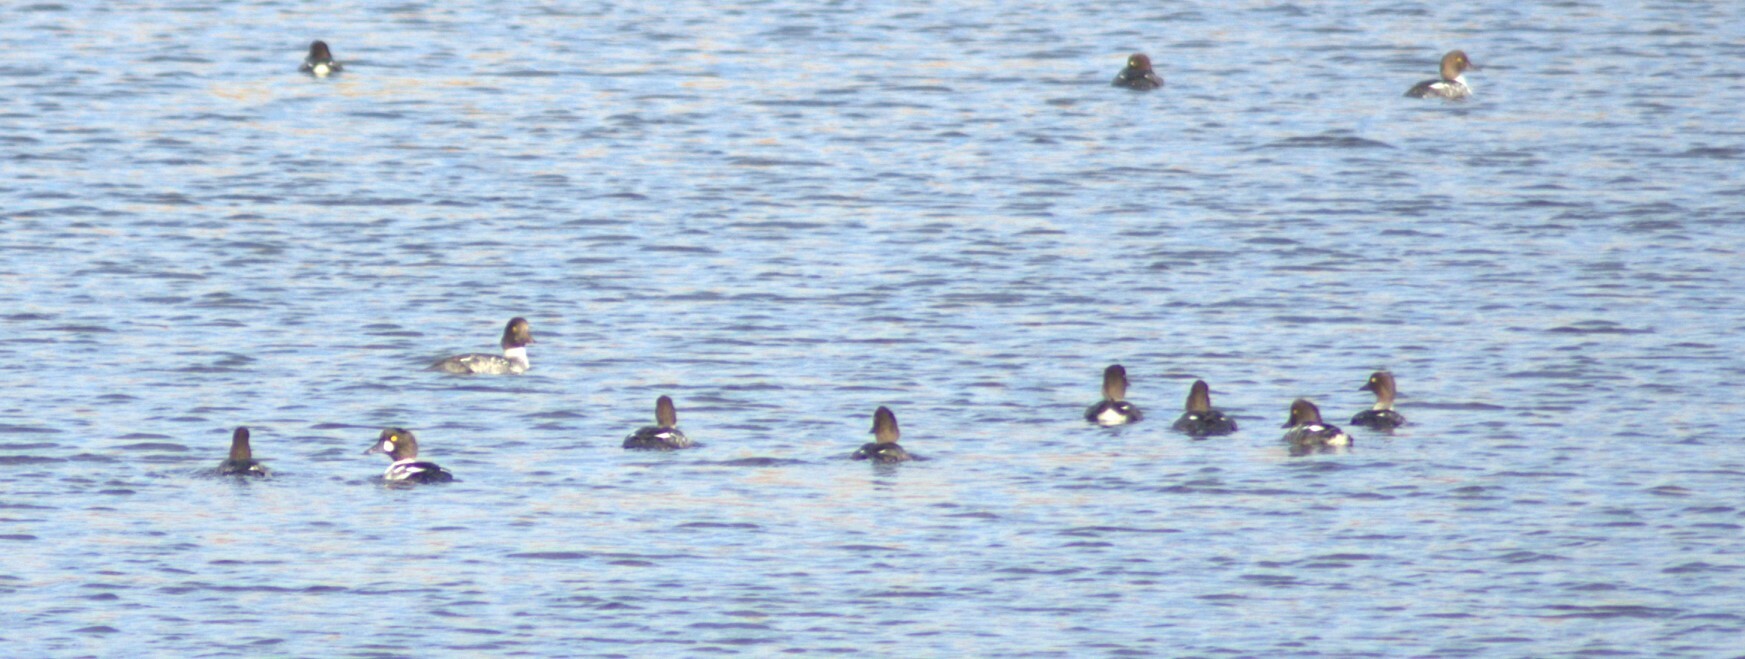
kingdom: Animalia
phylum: Chordata
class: Aves
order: Anseriformes
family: Anatidae
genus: Bucephala
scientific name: Bucephala clangula
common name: Common goldeneye
